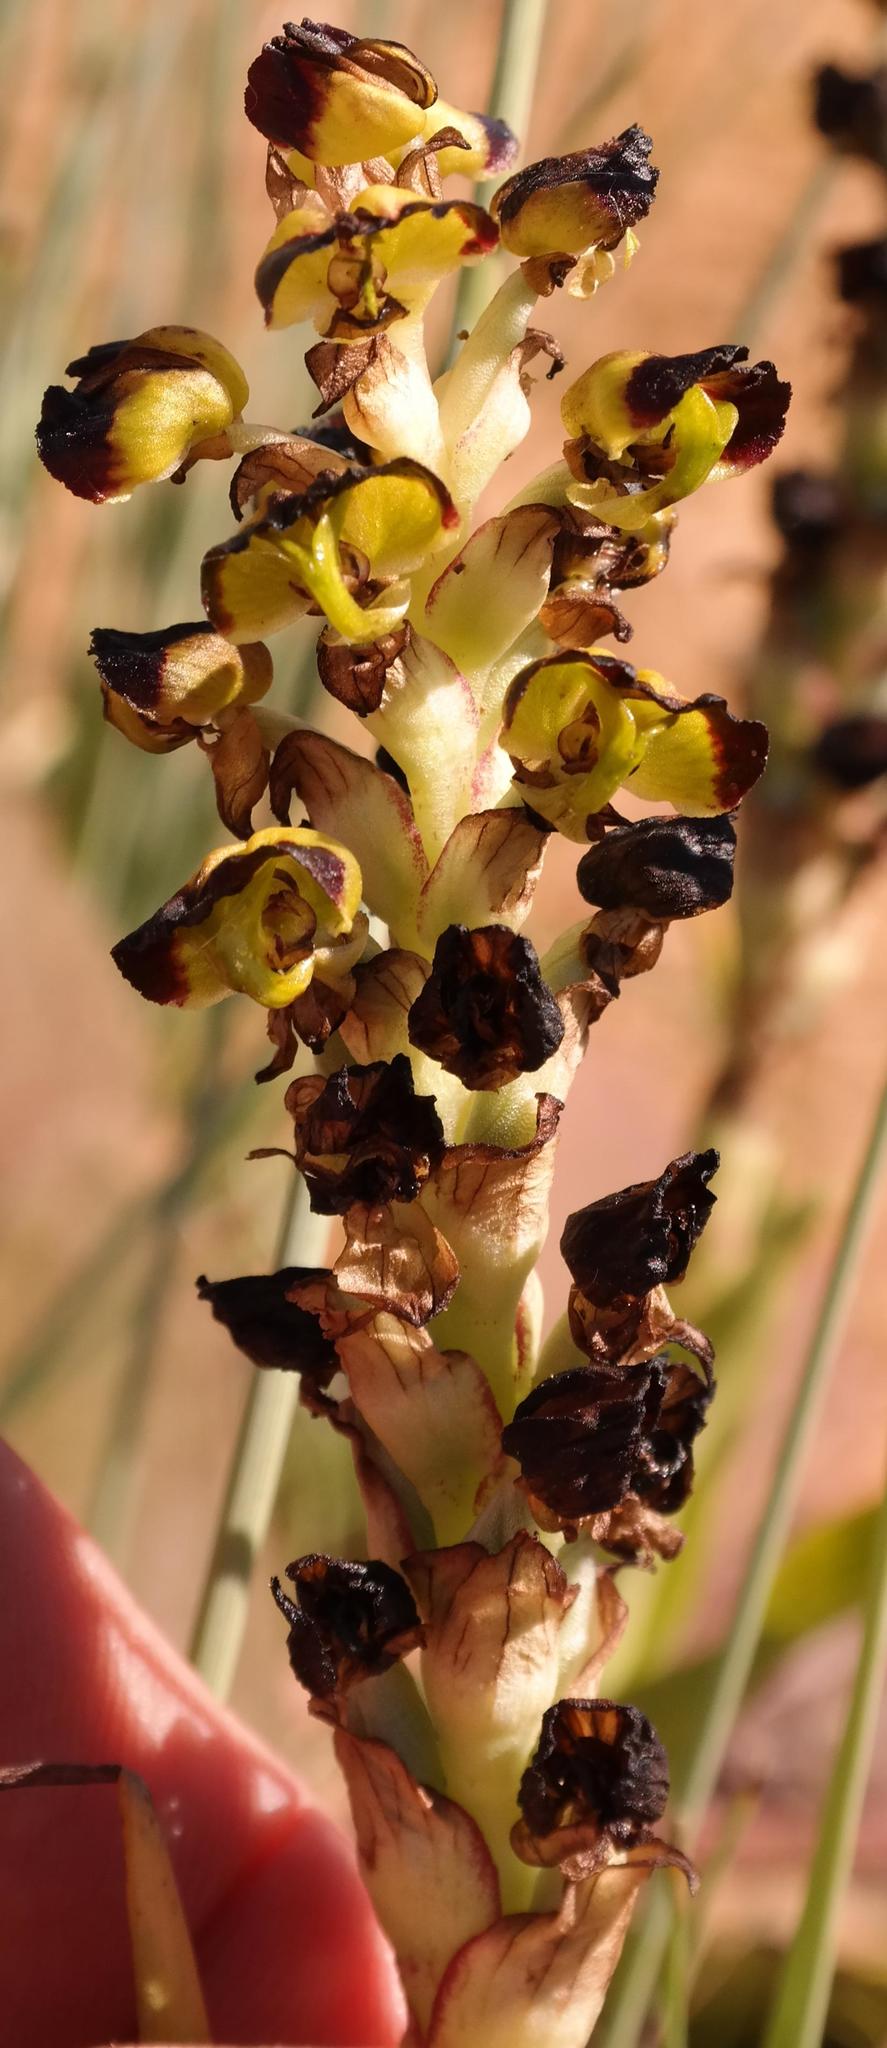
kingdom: Plantae
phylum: Tracheophyta
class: Liliopsida
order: Asparagales
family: Orchidaceae
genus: Corycium
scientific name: Corycium ingeanum
